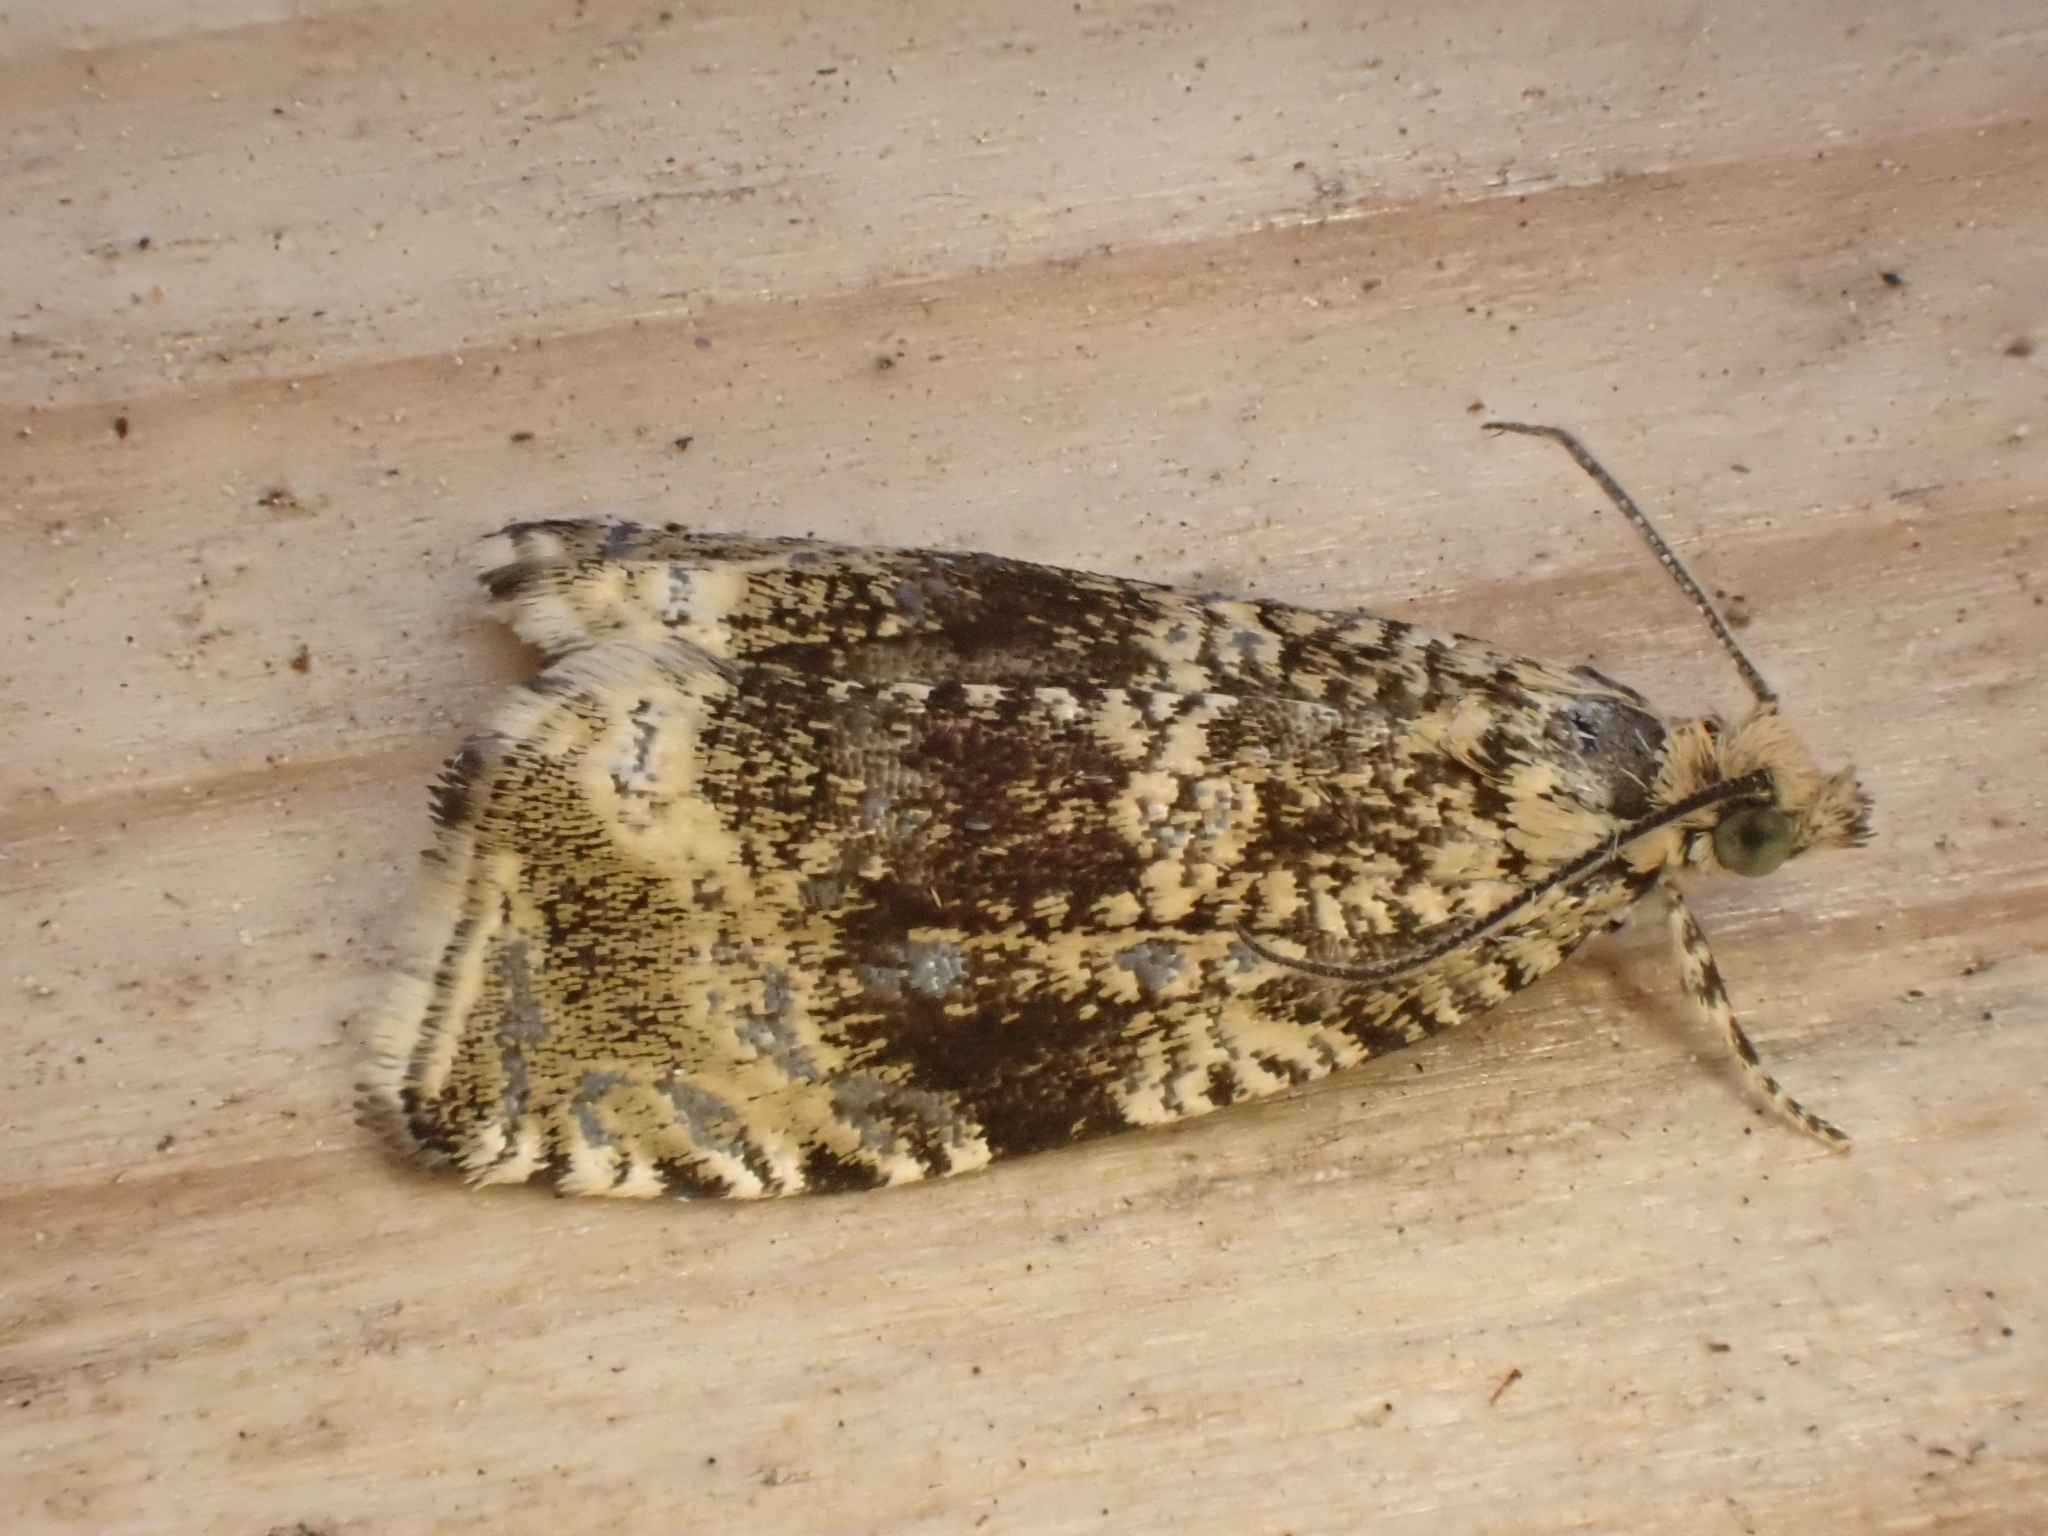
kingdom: Animalia
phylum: Arthropoda
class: Insecta
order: Lepidoptera
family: Tortricidae
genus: Syricoris
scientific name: Syricoris lacunana
